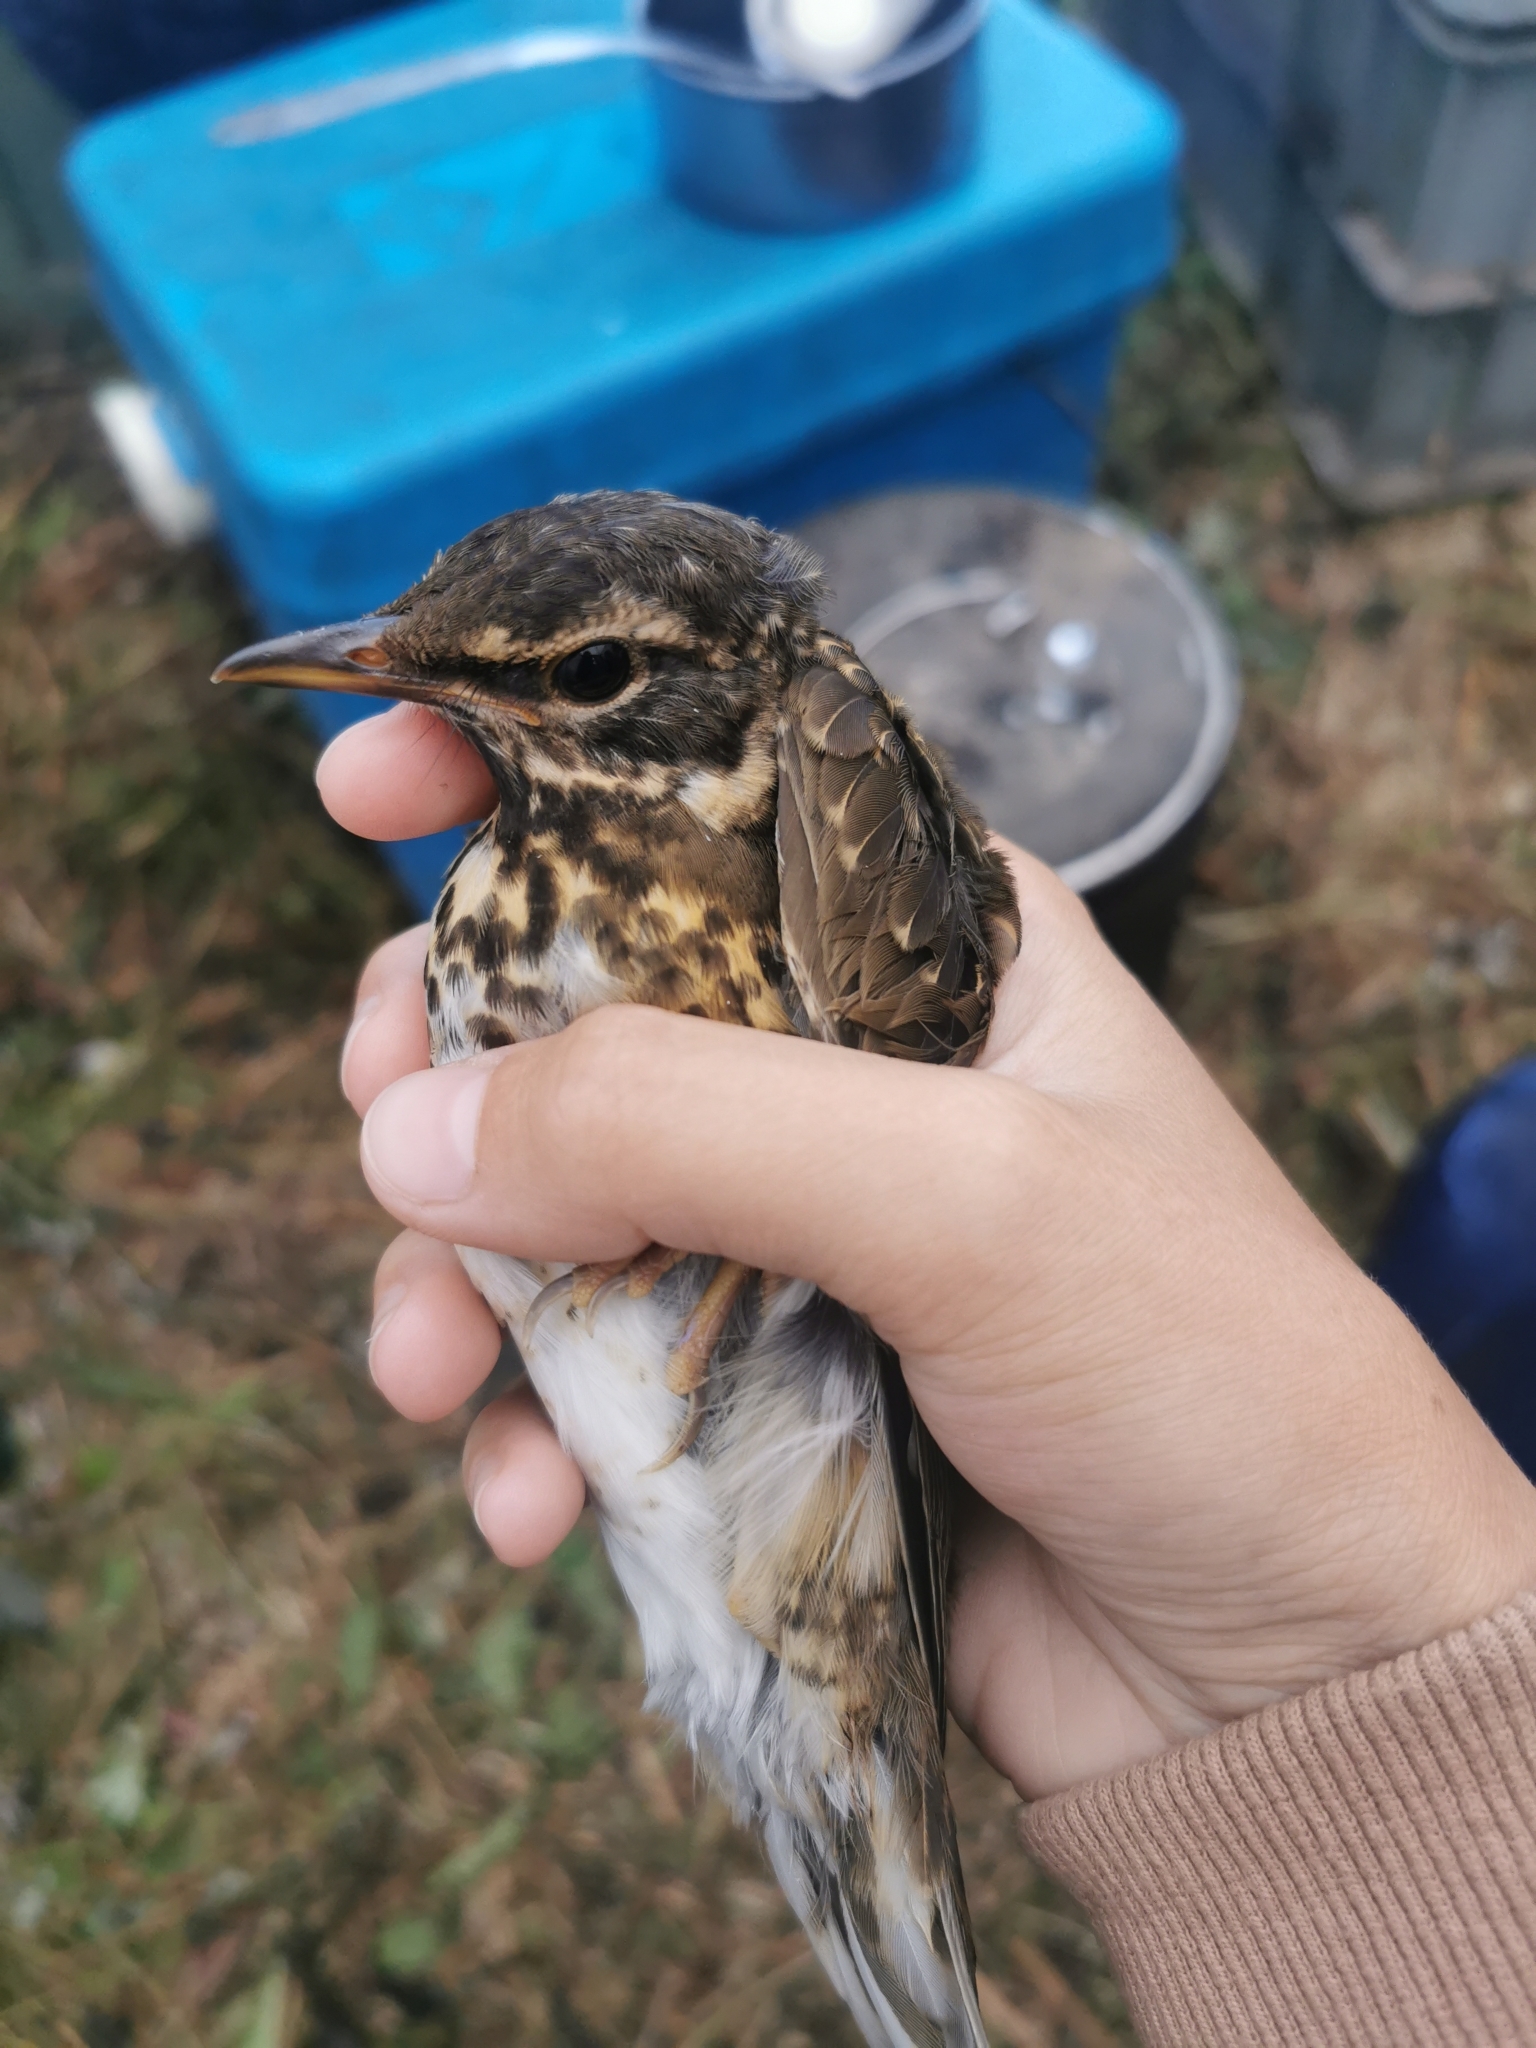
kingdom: Animalia
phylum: Chordata
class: Aves
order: Passeriformes
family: Turdidae
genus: Turdus
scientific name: Turdus obscurus
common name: Eyebrowed thrush
